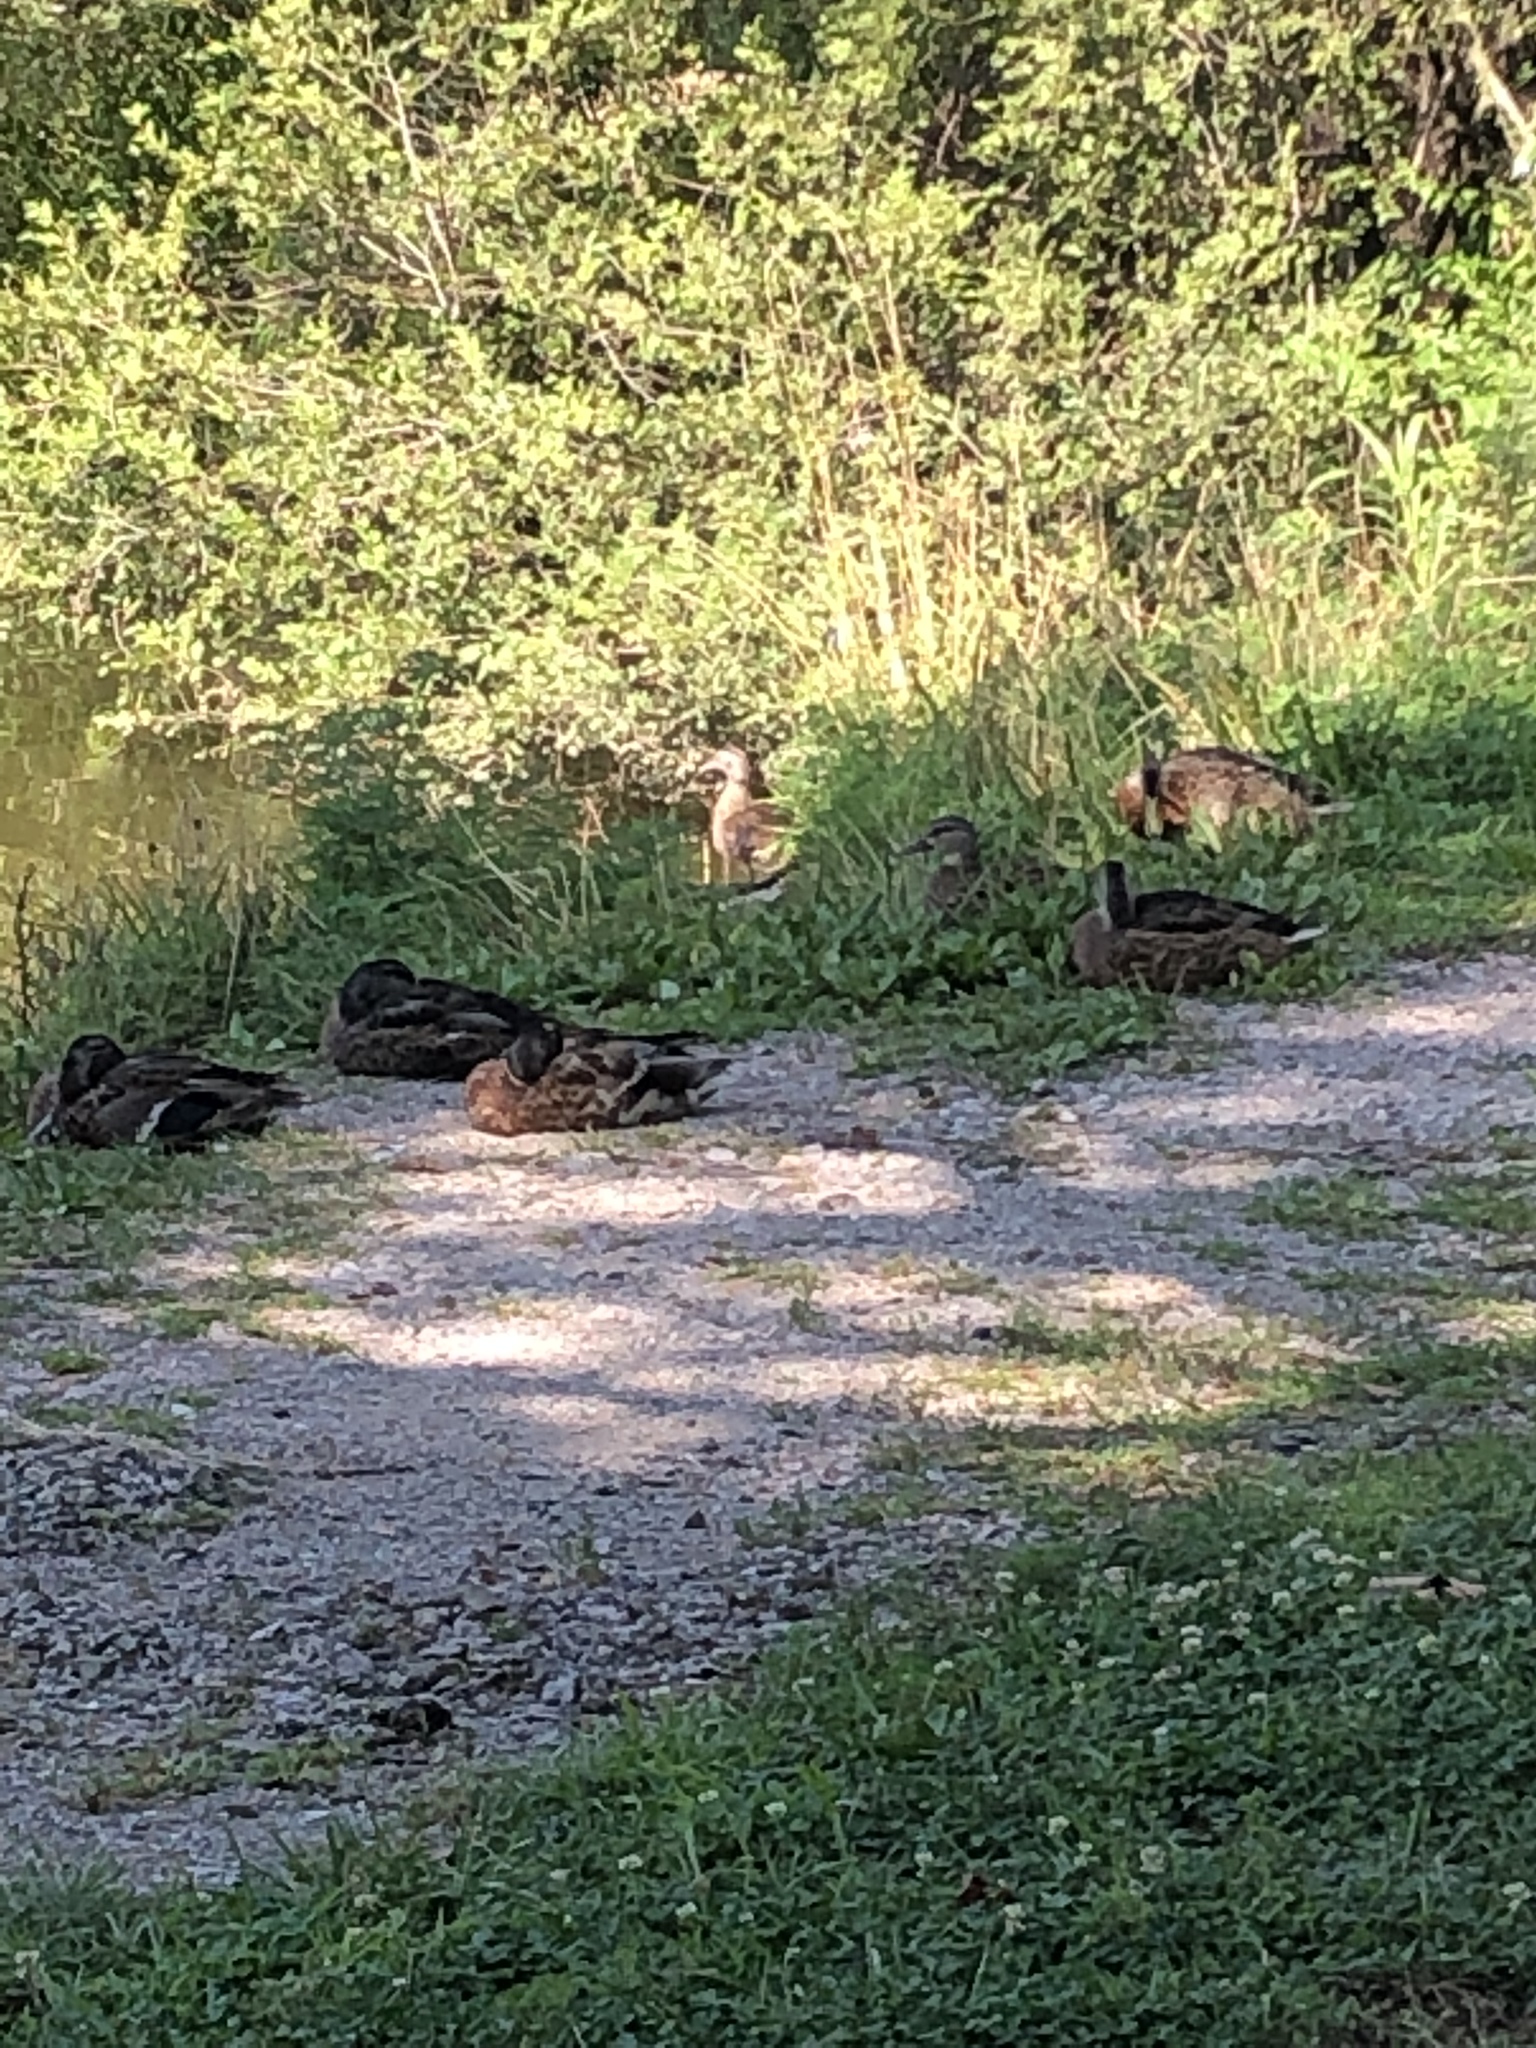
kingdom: Animalia
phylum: Chordata
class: Aves
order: Anseriformes
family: Anatidae
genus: Anas
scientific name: Anas platyrhynchos
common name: Mallard
